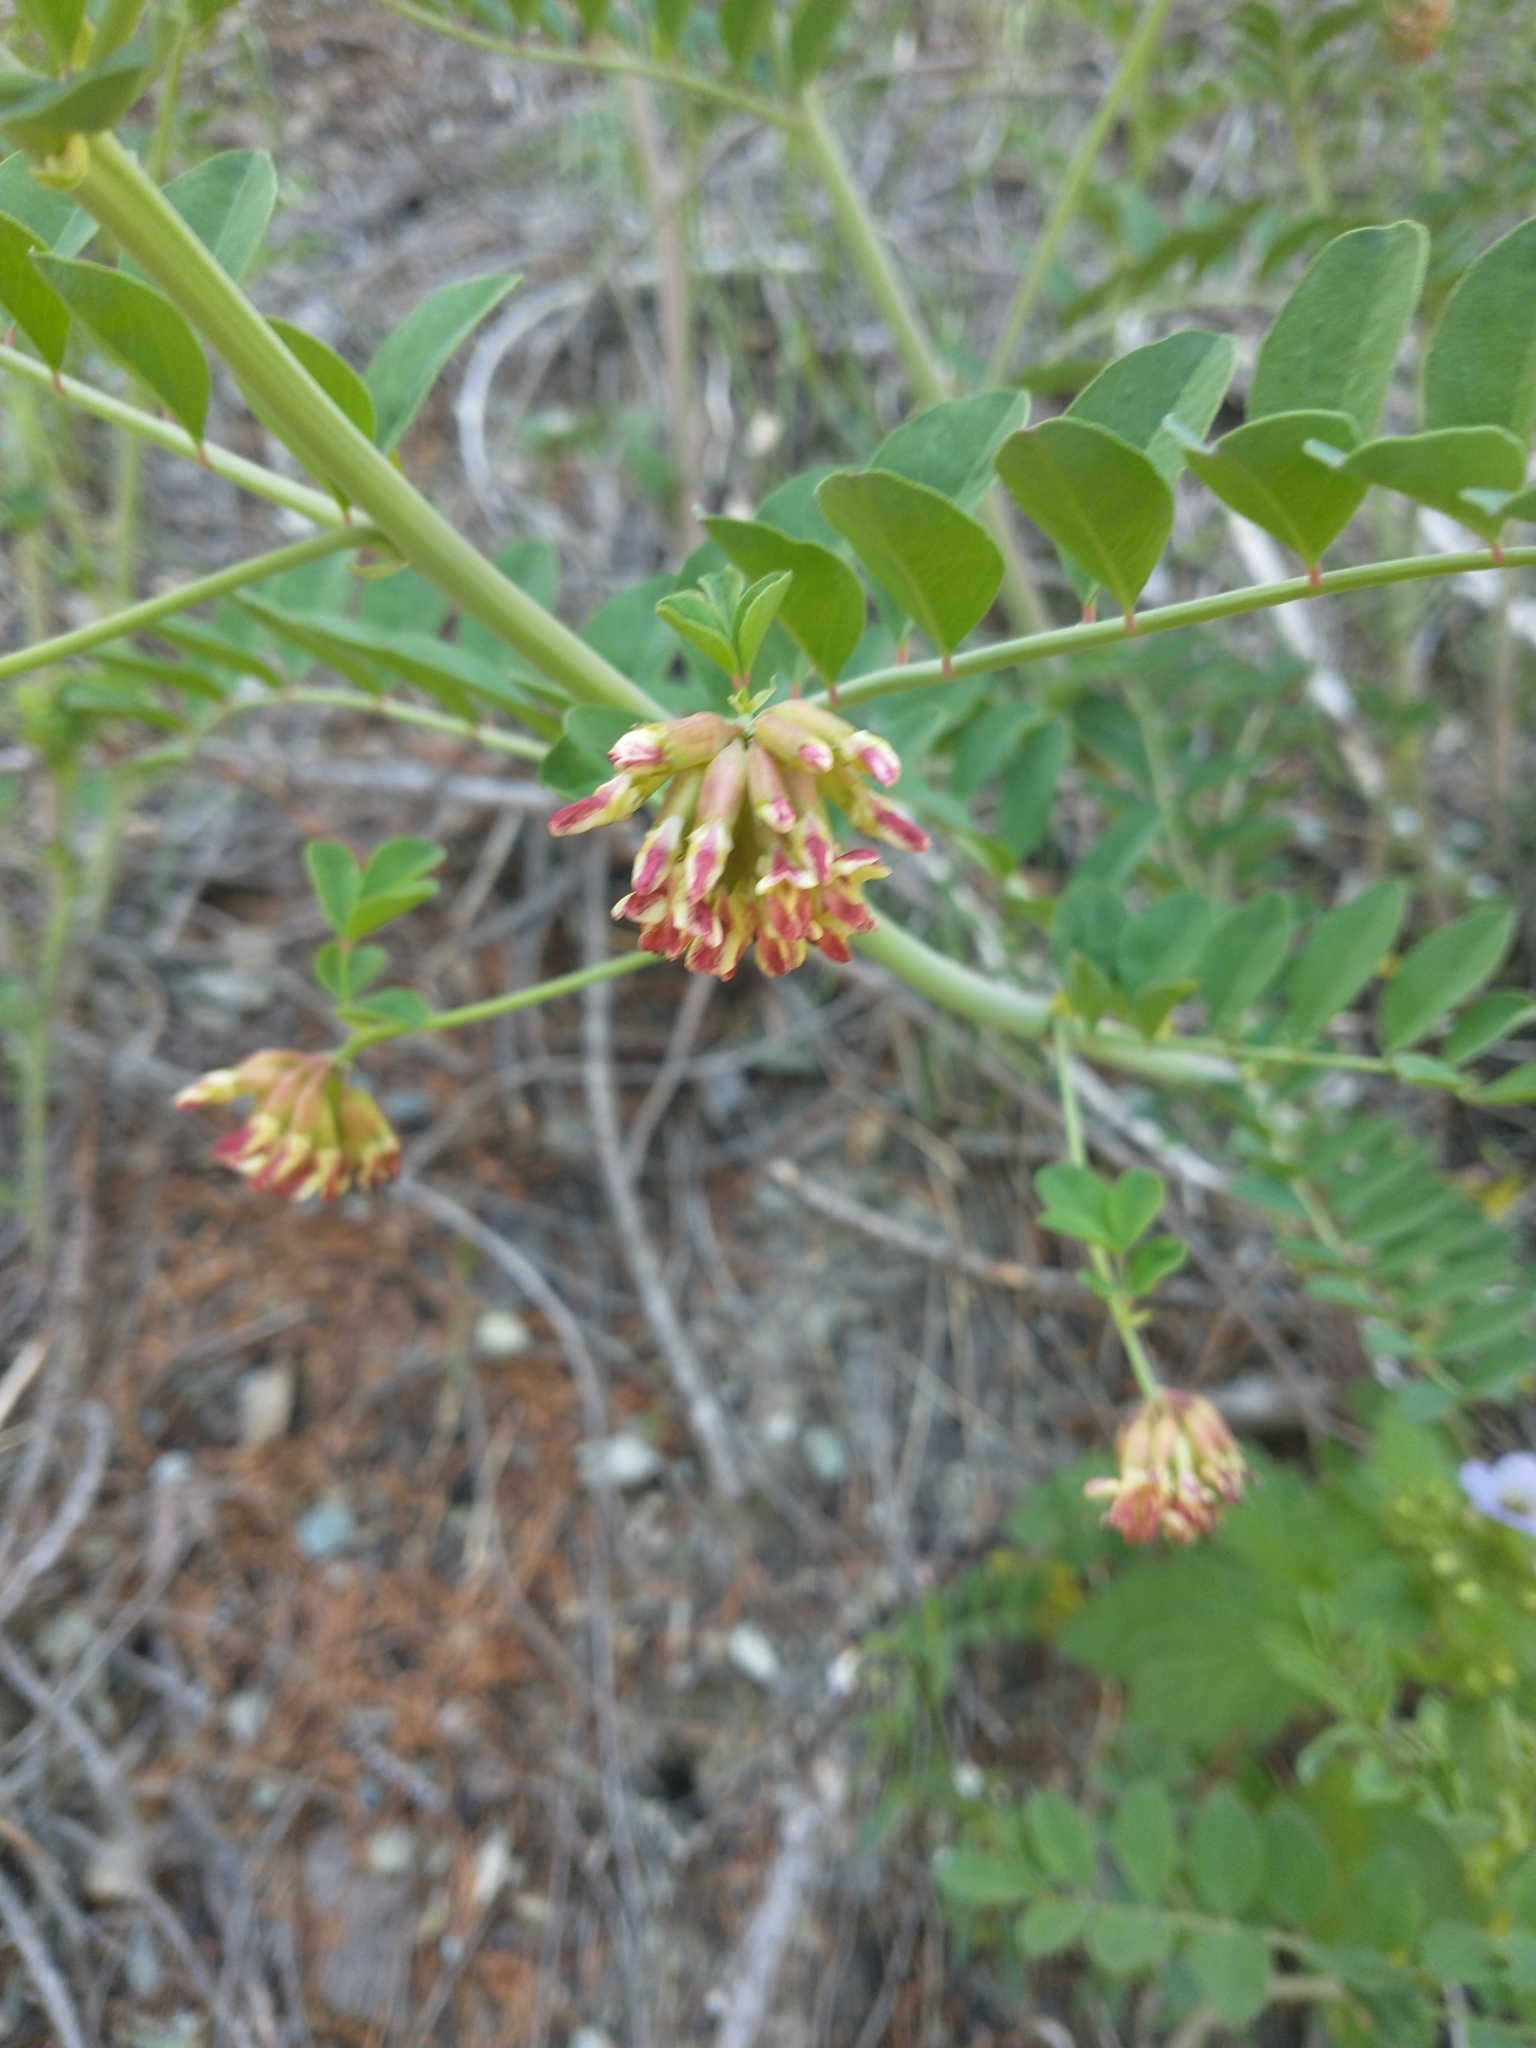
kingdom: Plantae
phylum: Tracheophyta
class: Magnoliopsida
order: Fabales
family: Fabaceae
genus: Hosackia
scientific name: Hosackia crassifolia
